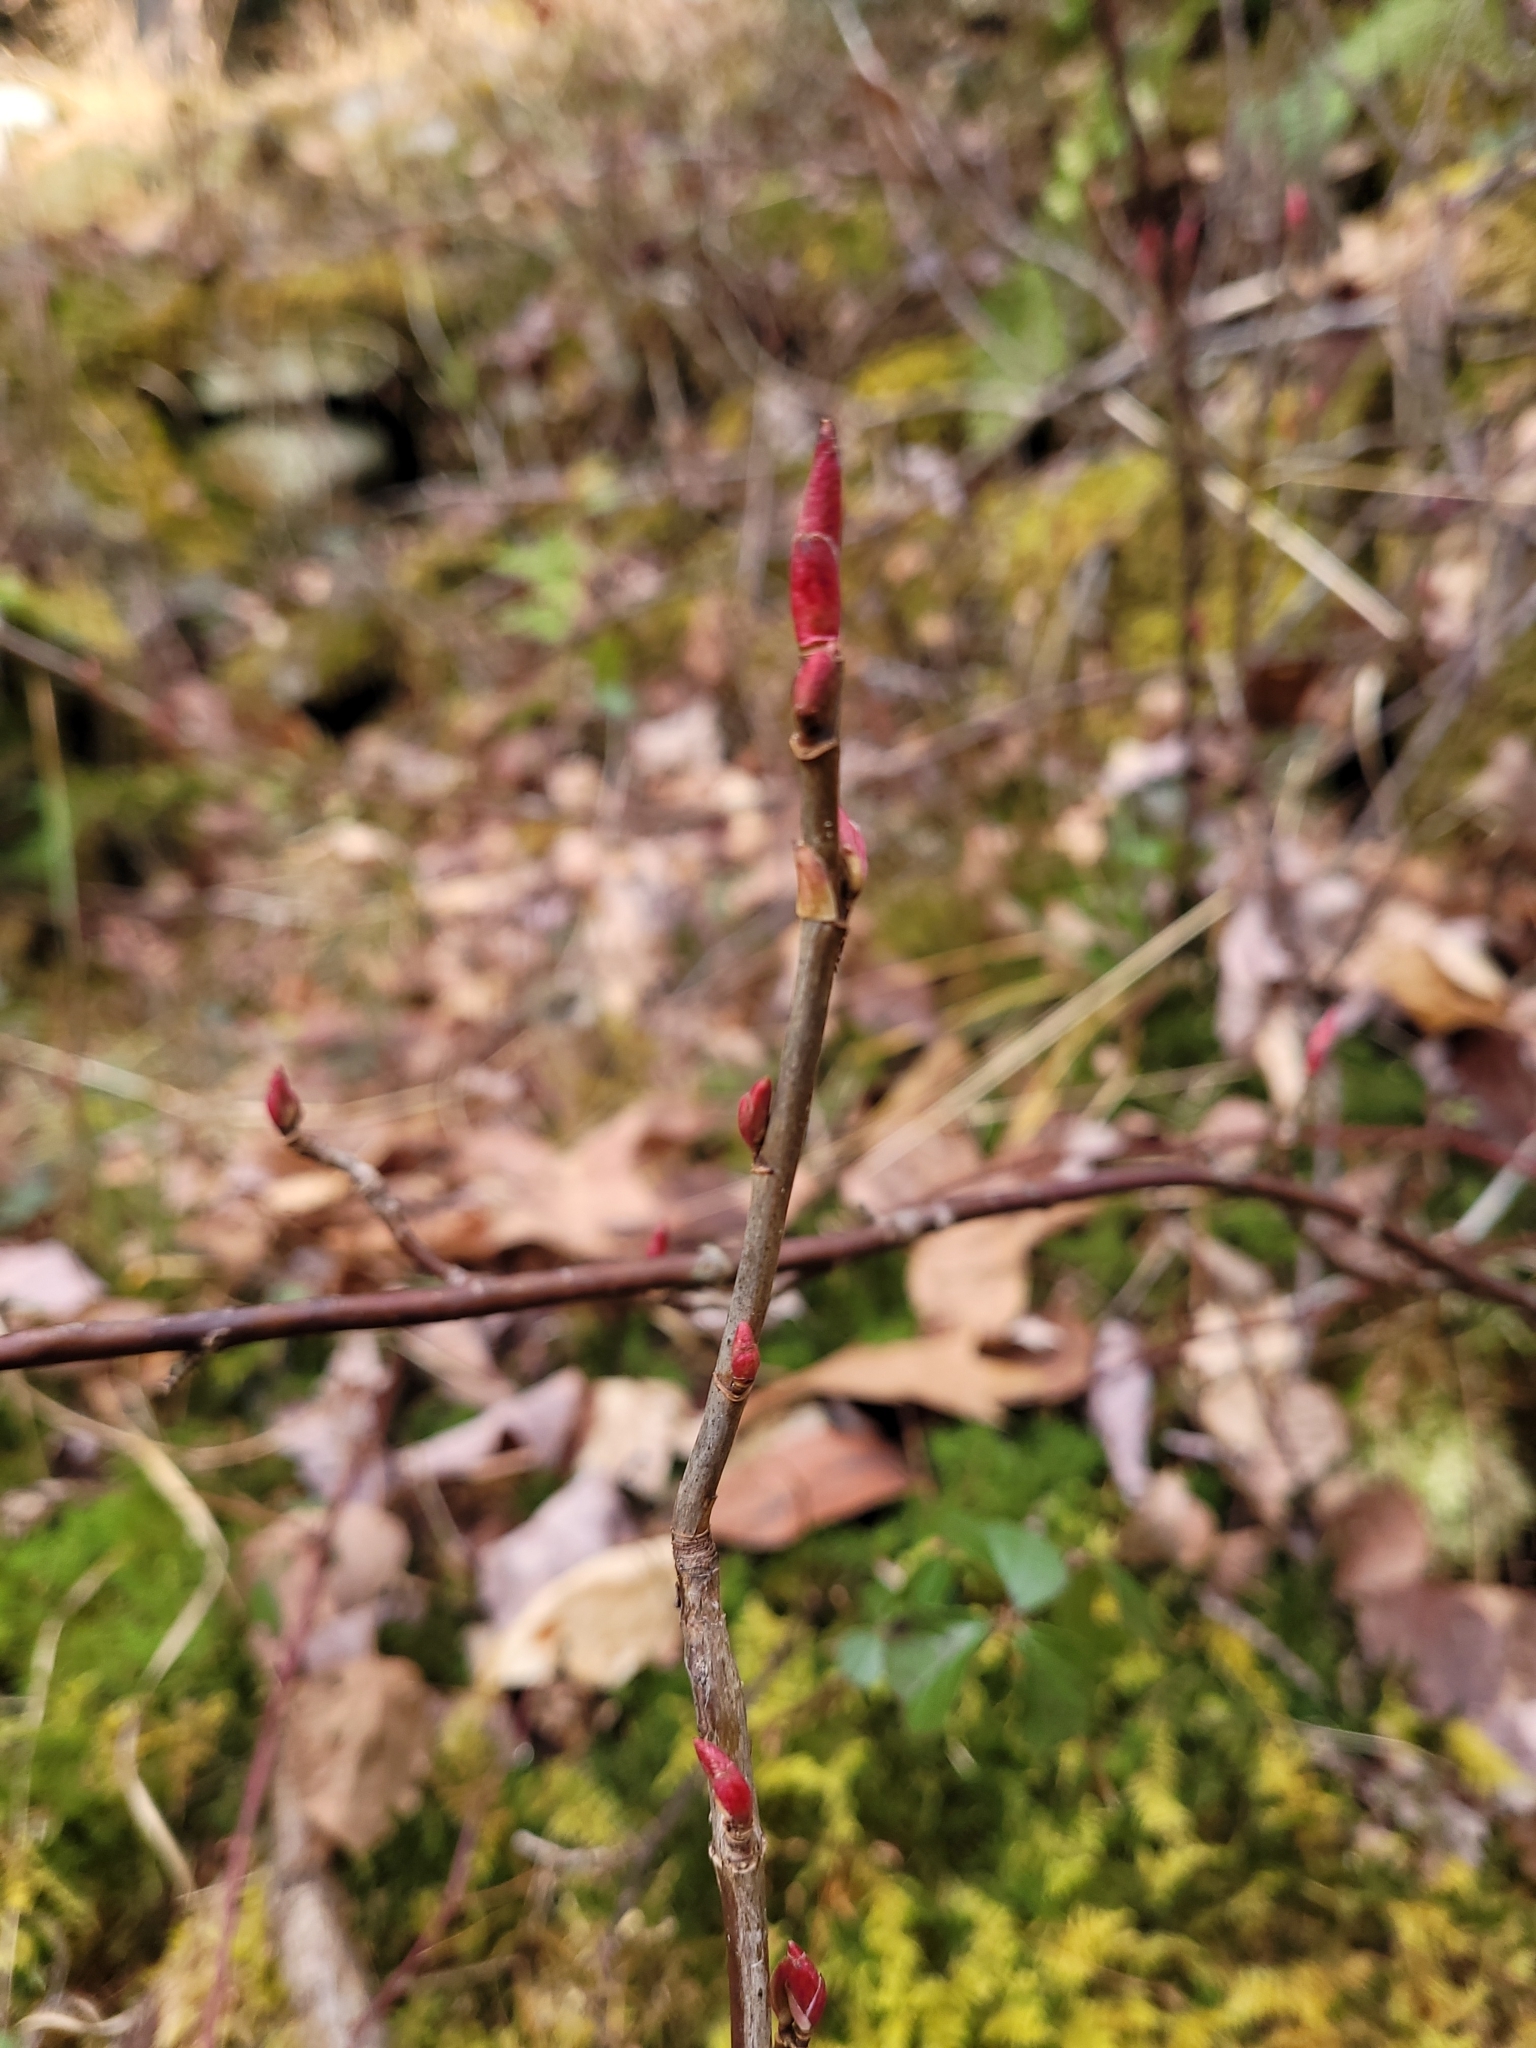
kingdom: Plantae
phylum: Tracheophyta
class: Magnoliopsida
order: Saxifragales
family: Grossulariaceae
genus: Ribes
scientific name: Ribes glandulosum
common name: Skunk currant
